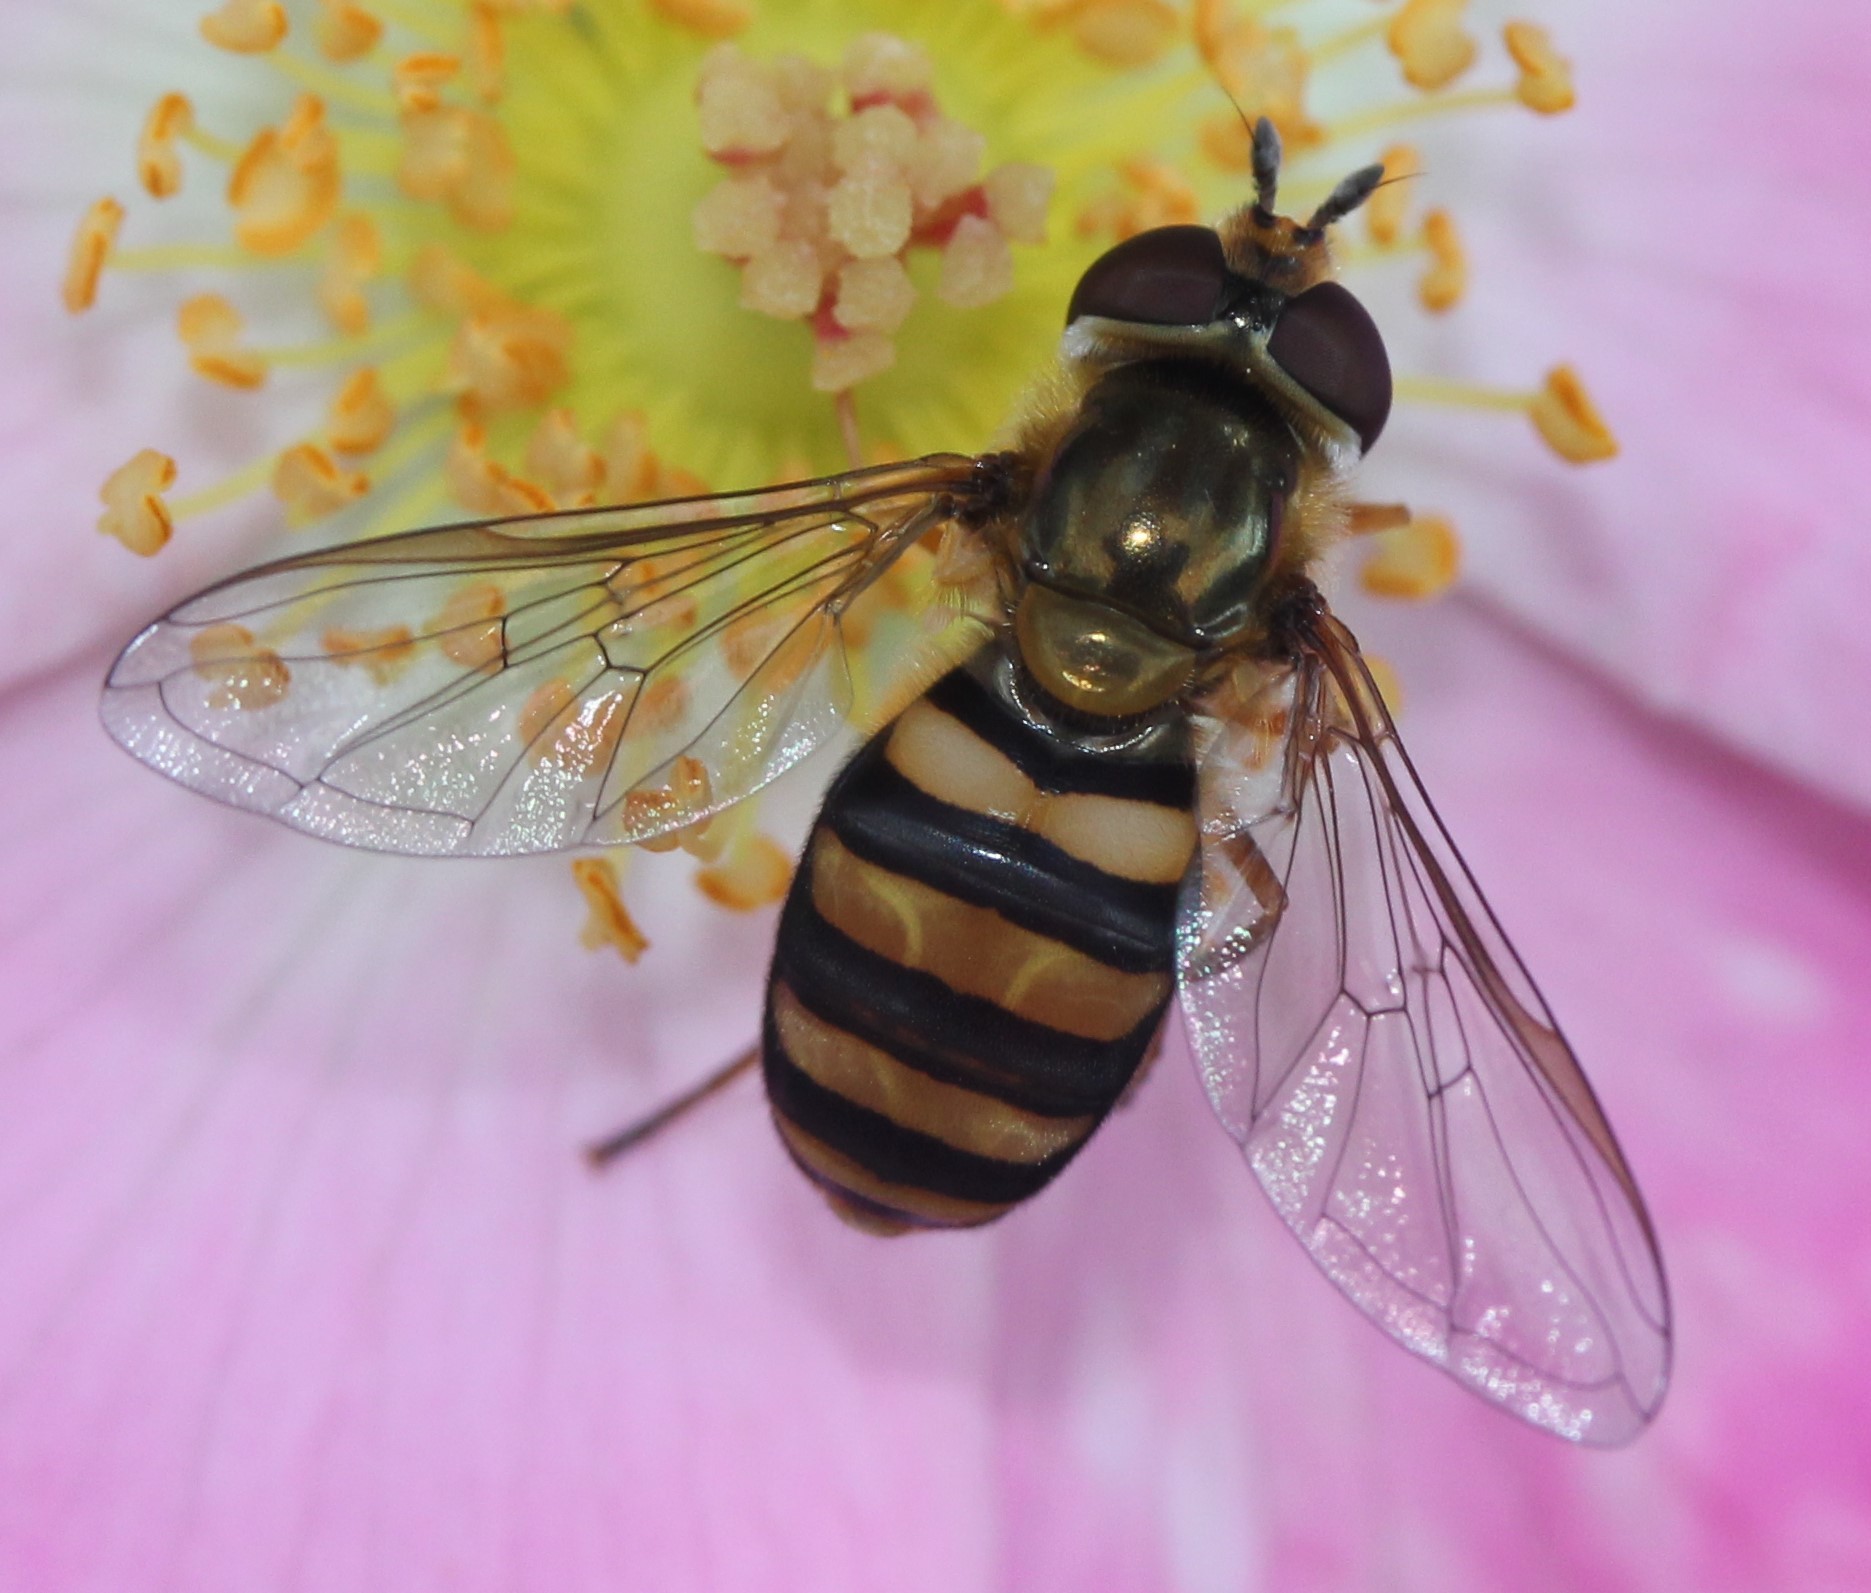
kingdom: Animalia
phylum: Arthropoda
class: Insecta
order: Diptera
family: Syrphidae
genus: Eupeodes
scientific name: Eupeodes
